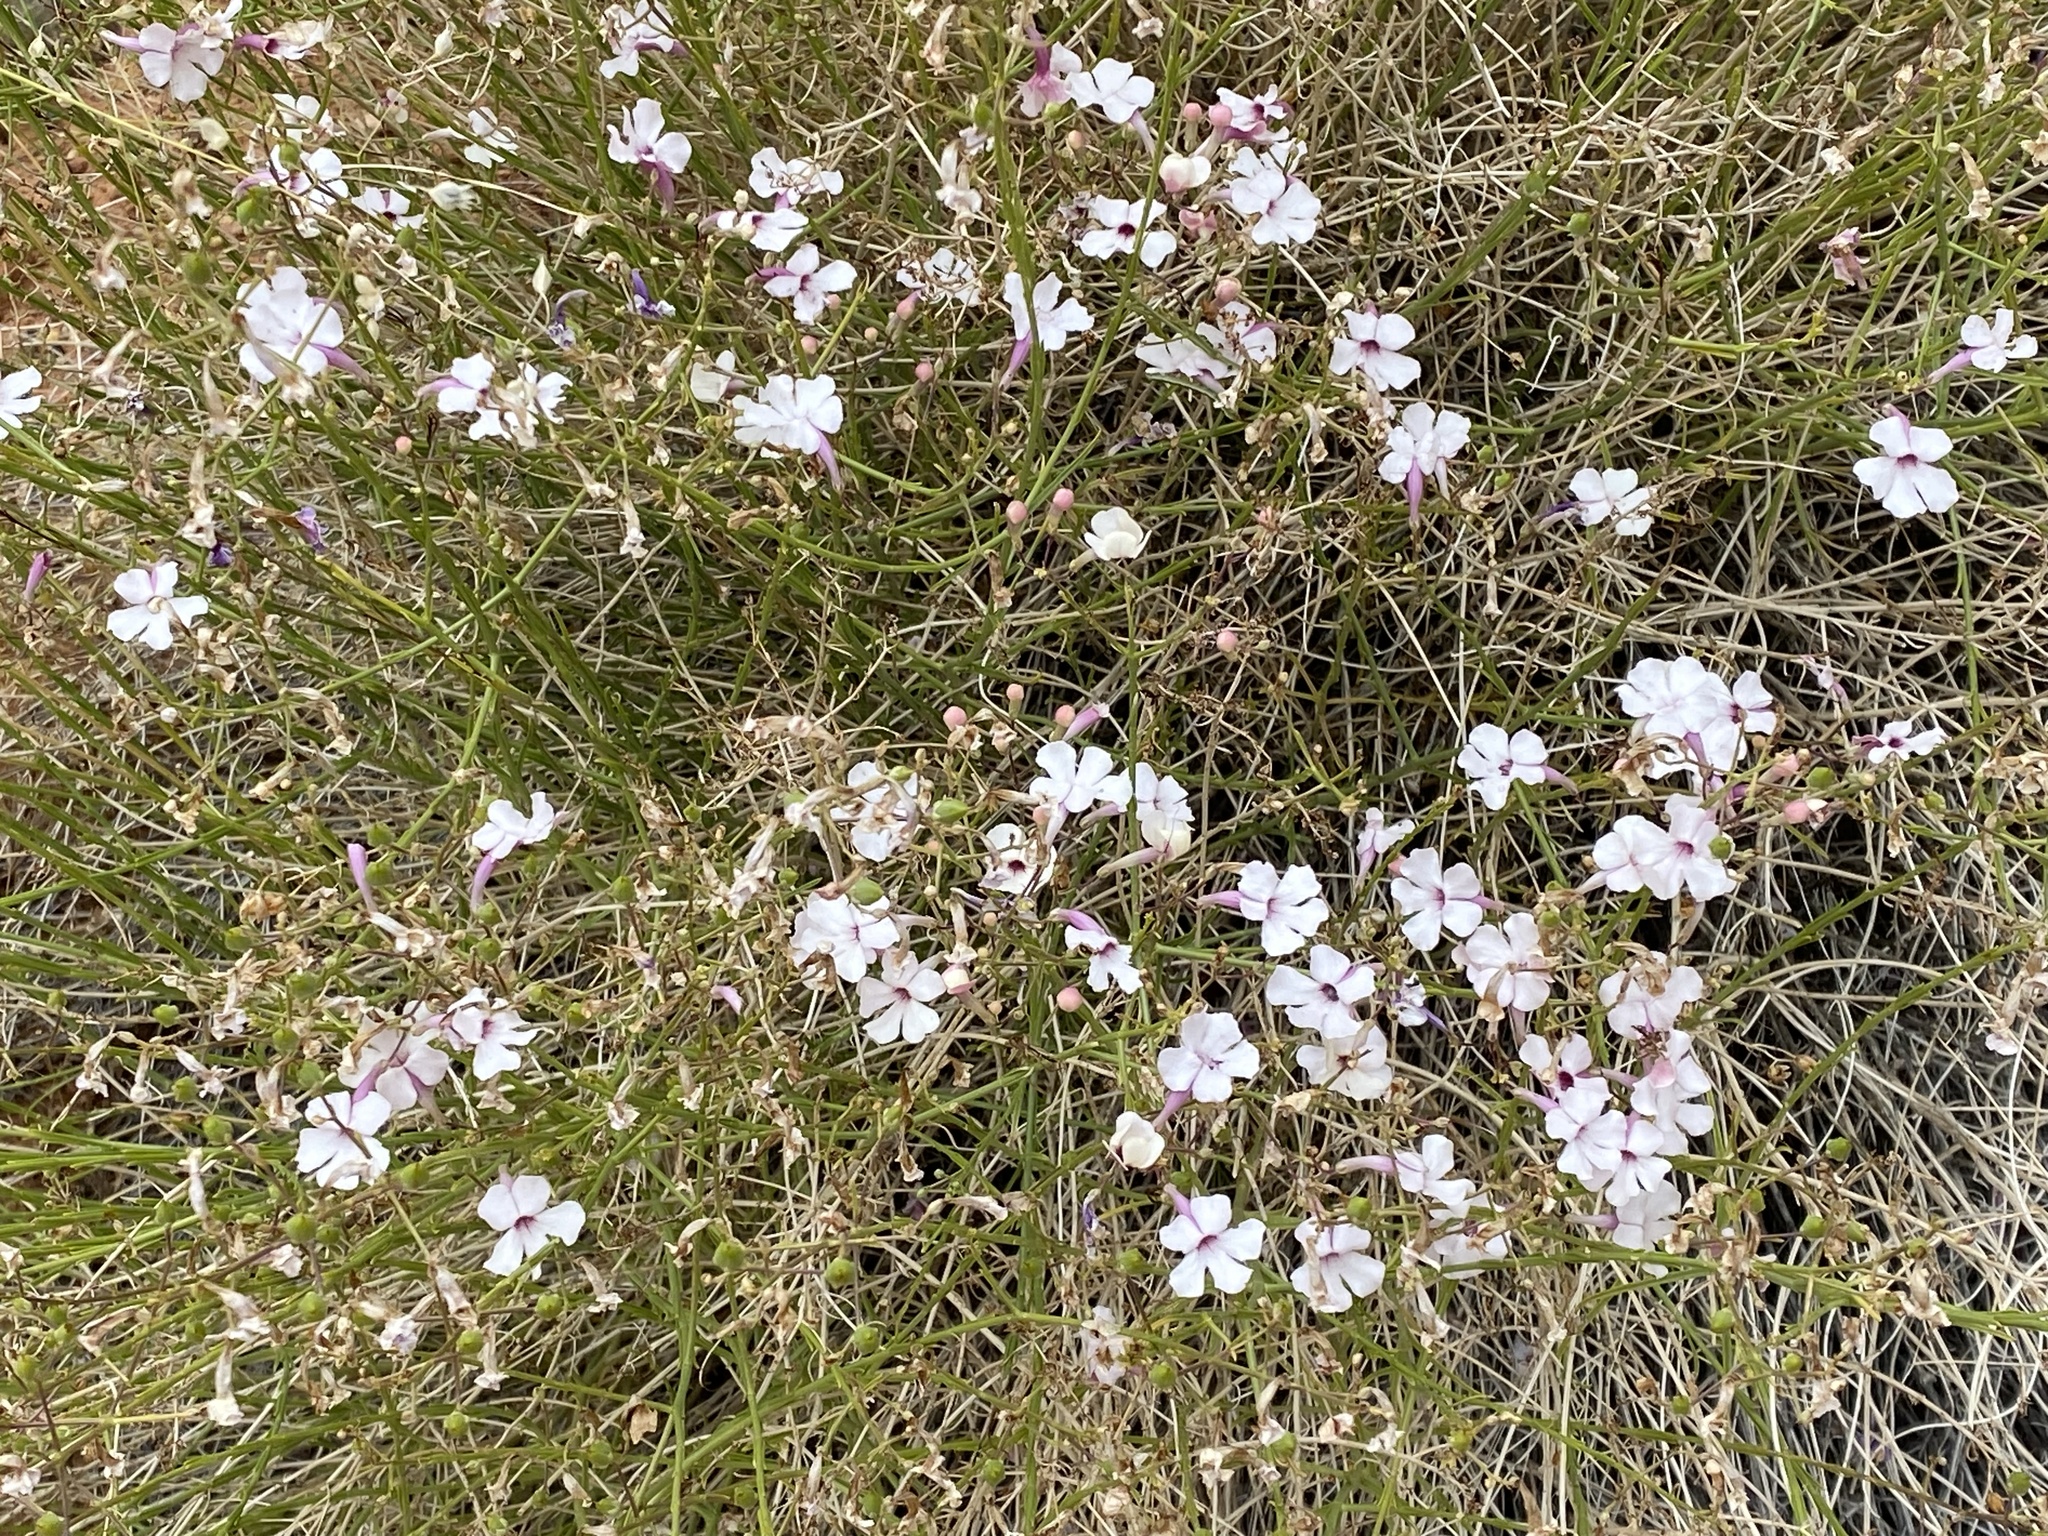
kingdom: Plantae
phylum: Tracheophyta
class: Magnoliopsida
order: Lamiales
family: Plantaginaceae
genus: Penstemon
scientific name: Penstemon ambiguus
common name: Bush penstemon
